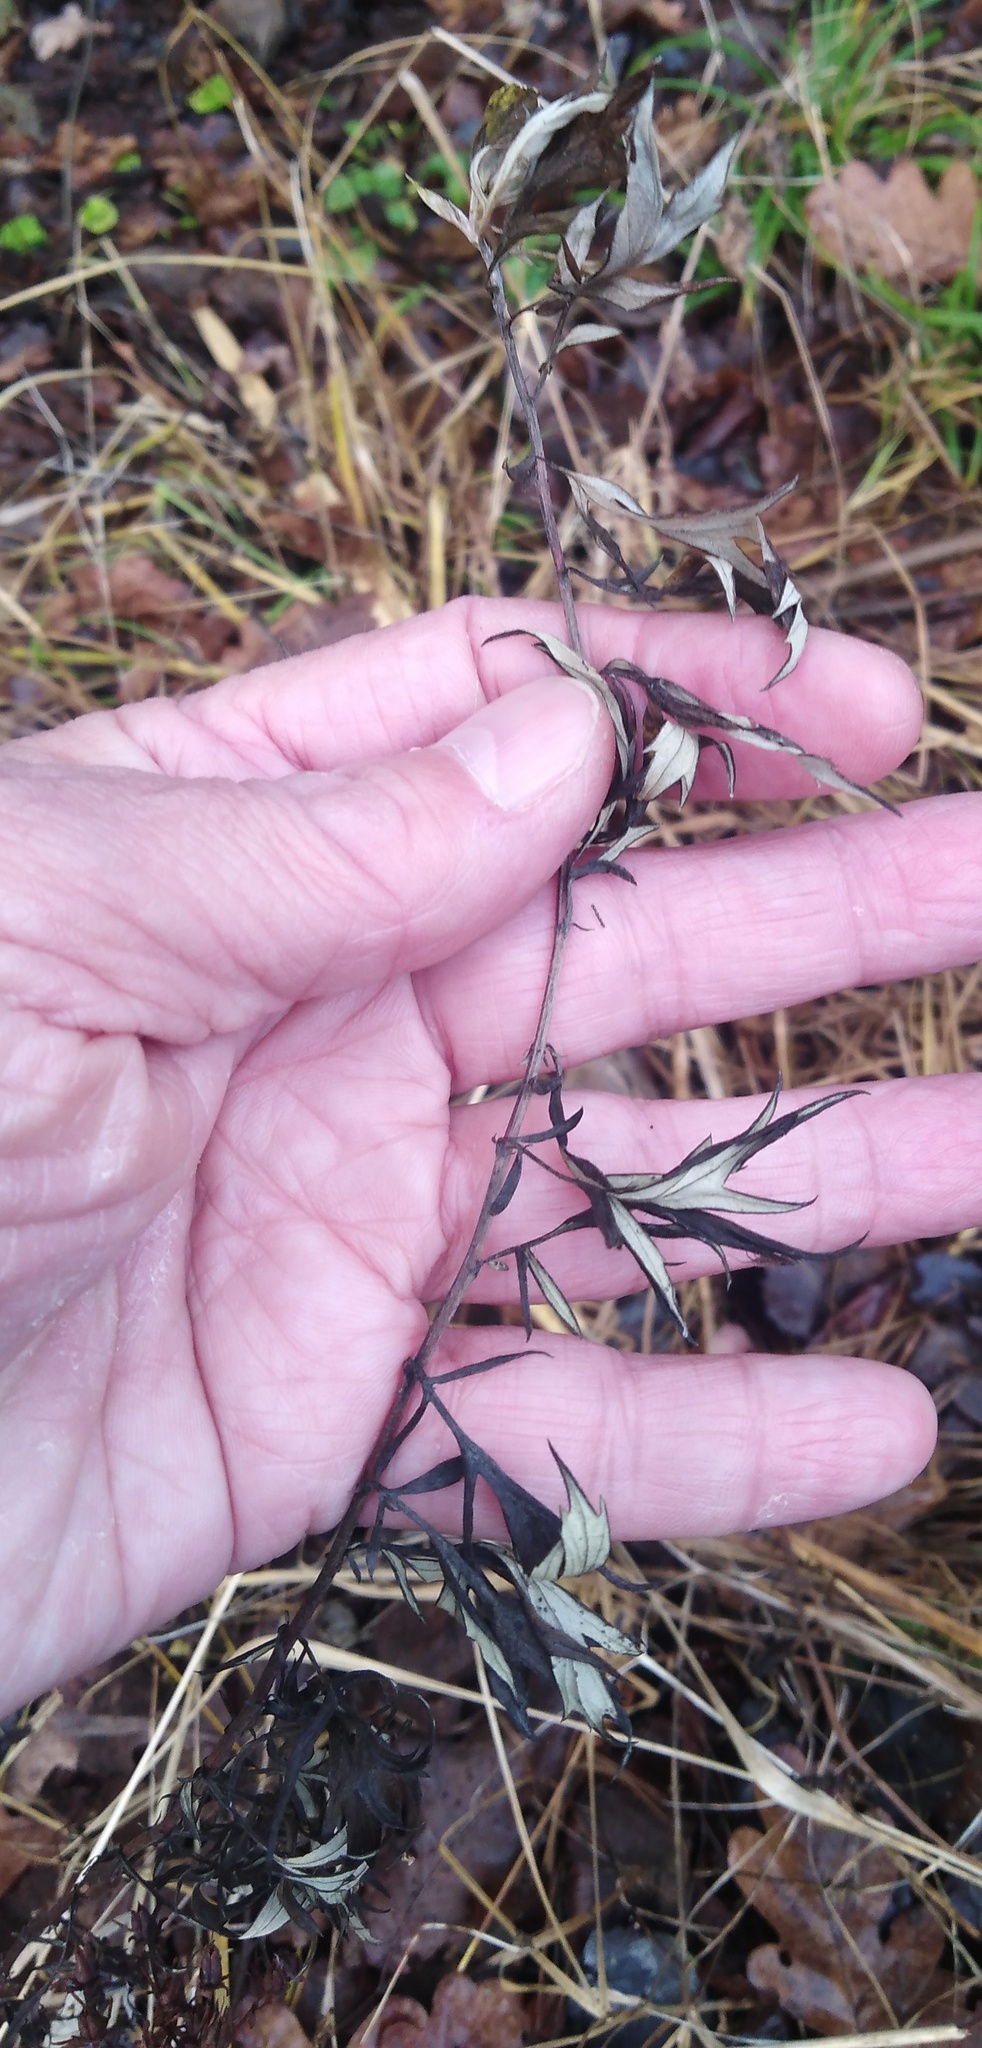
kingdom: Plantae
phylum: Tracheophyta
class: Magnoliopsida
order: Asterales
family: Asteraceae
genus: Artemisia
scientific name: Artemisia vulgaris
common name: Mugwort
